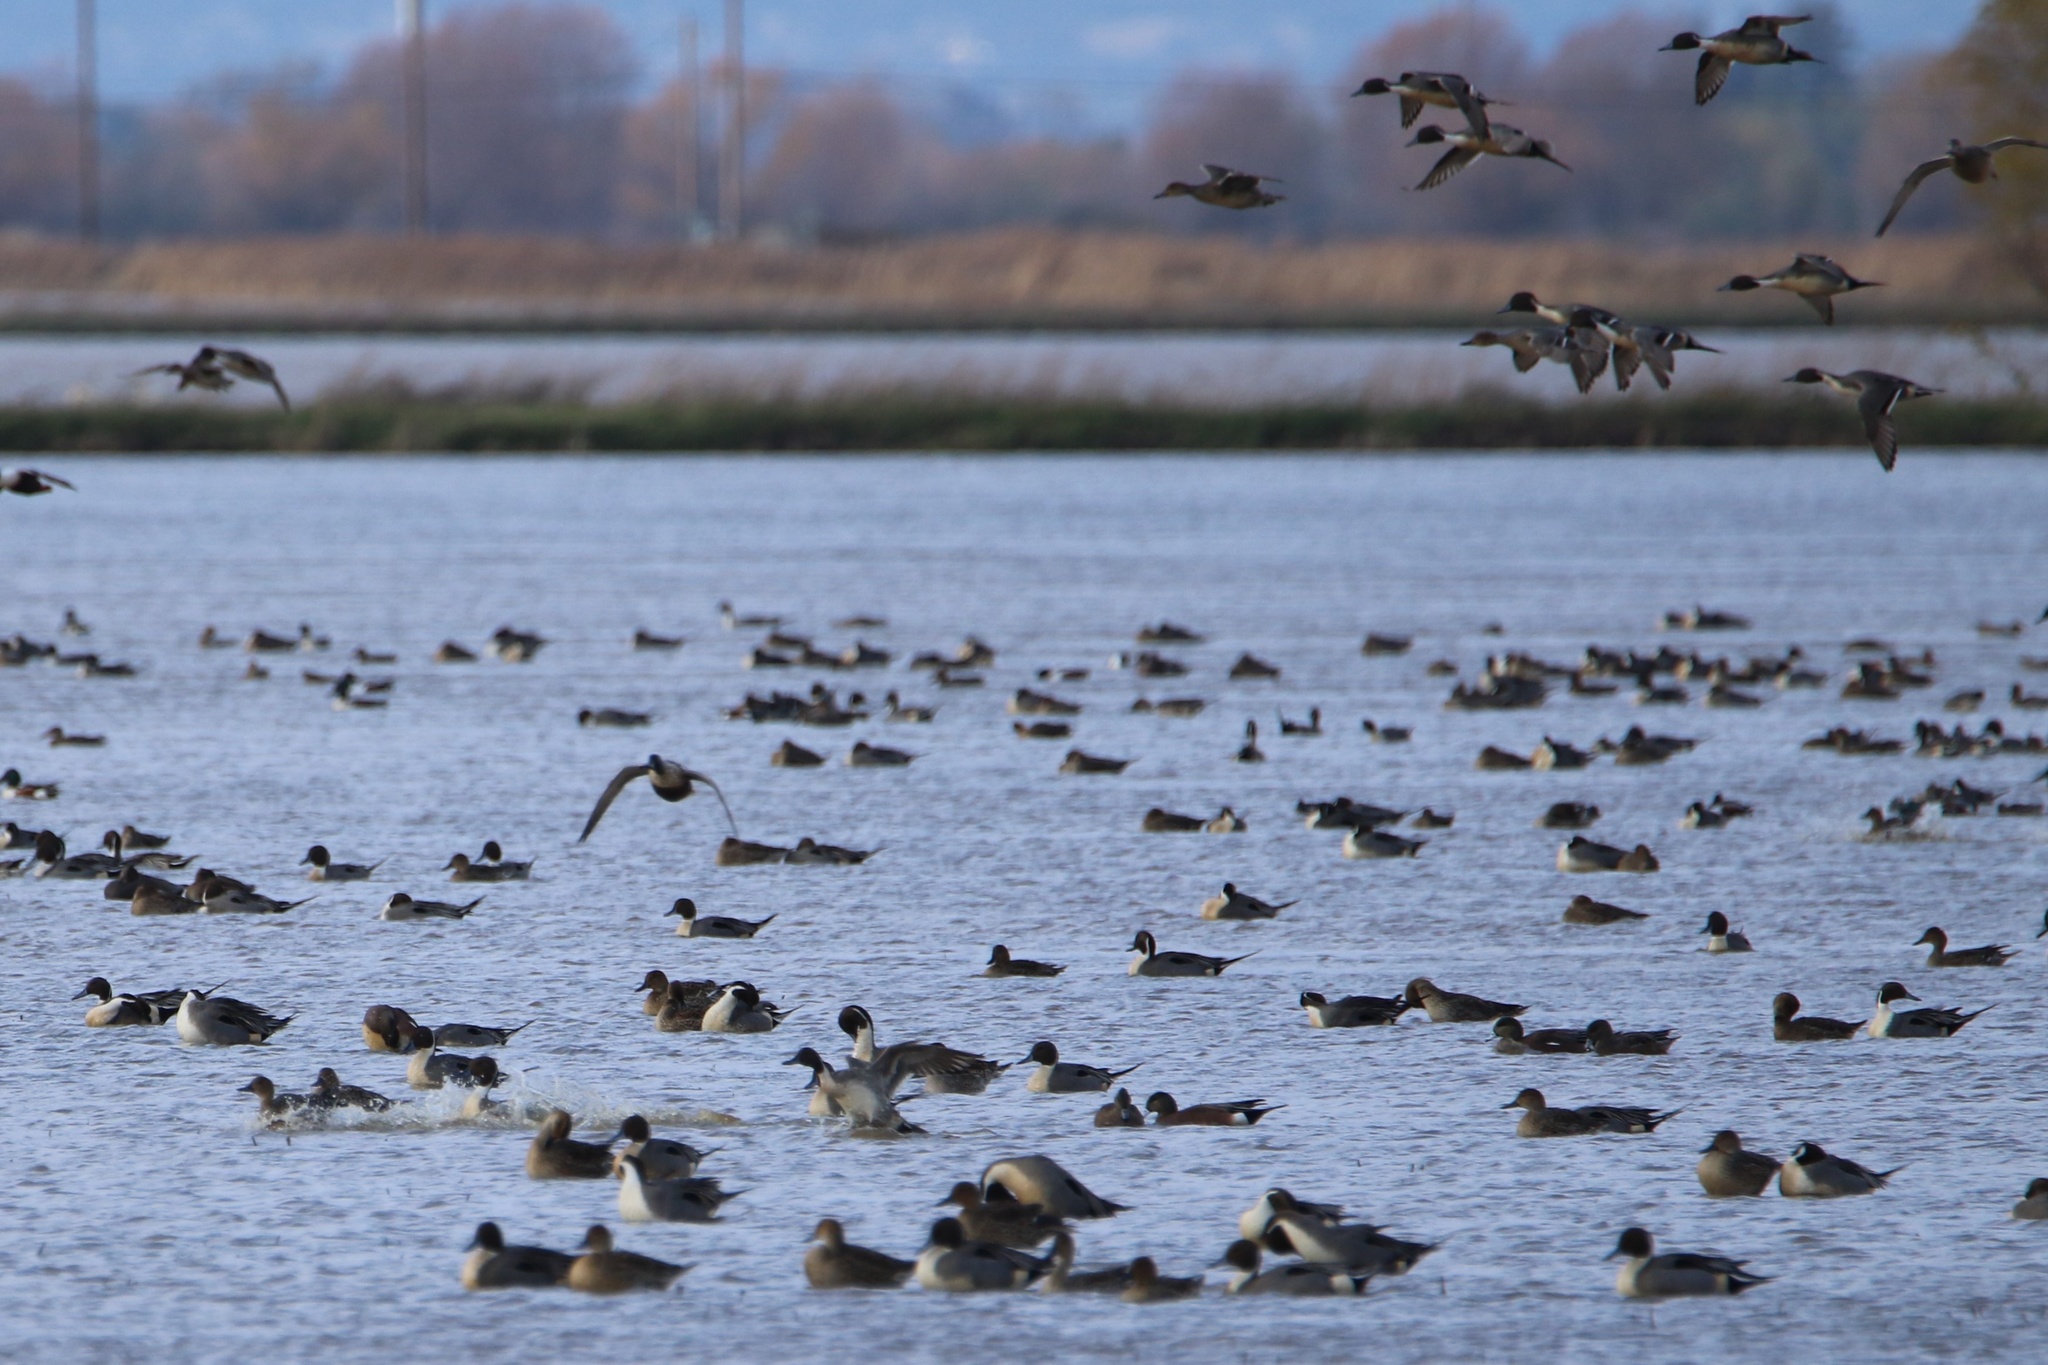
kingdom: Animalia
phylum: Chordata
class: Aves
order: Anseriformes
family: Anatidae
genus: Anas
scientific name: Anas acuta
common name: Northern pintail
